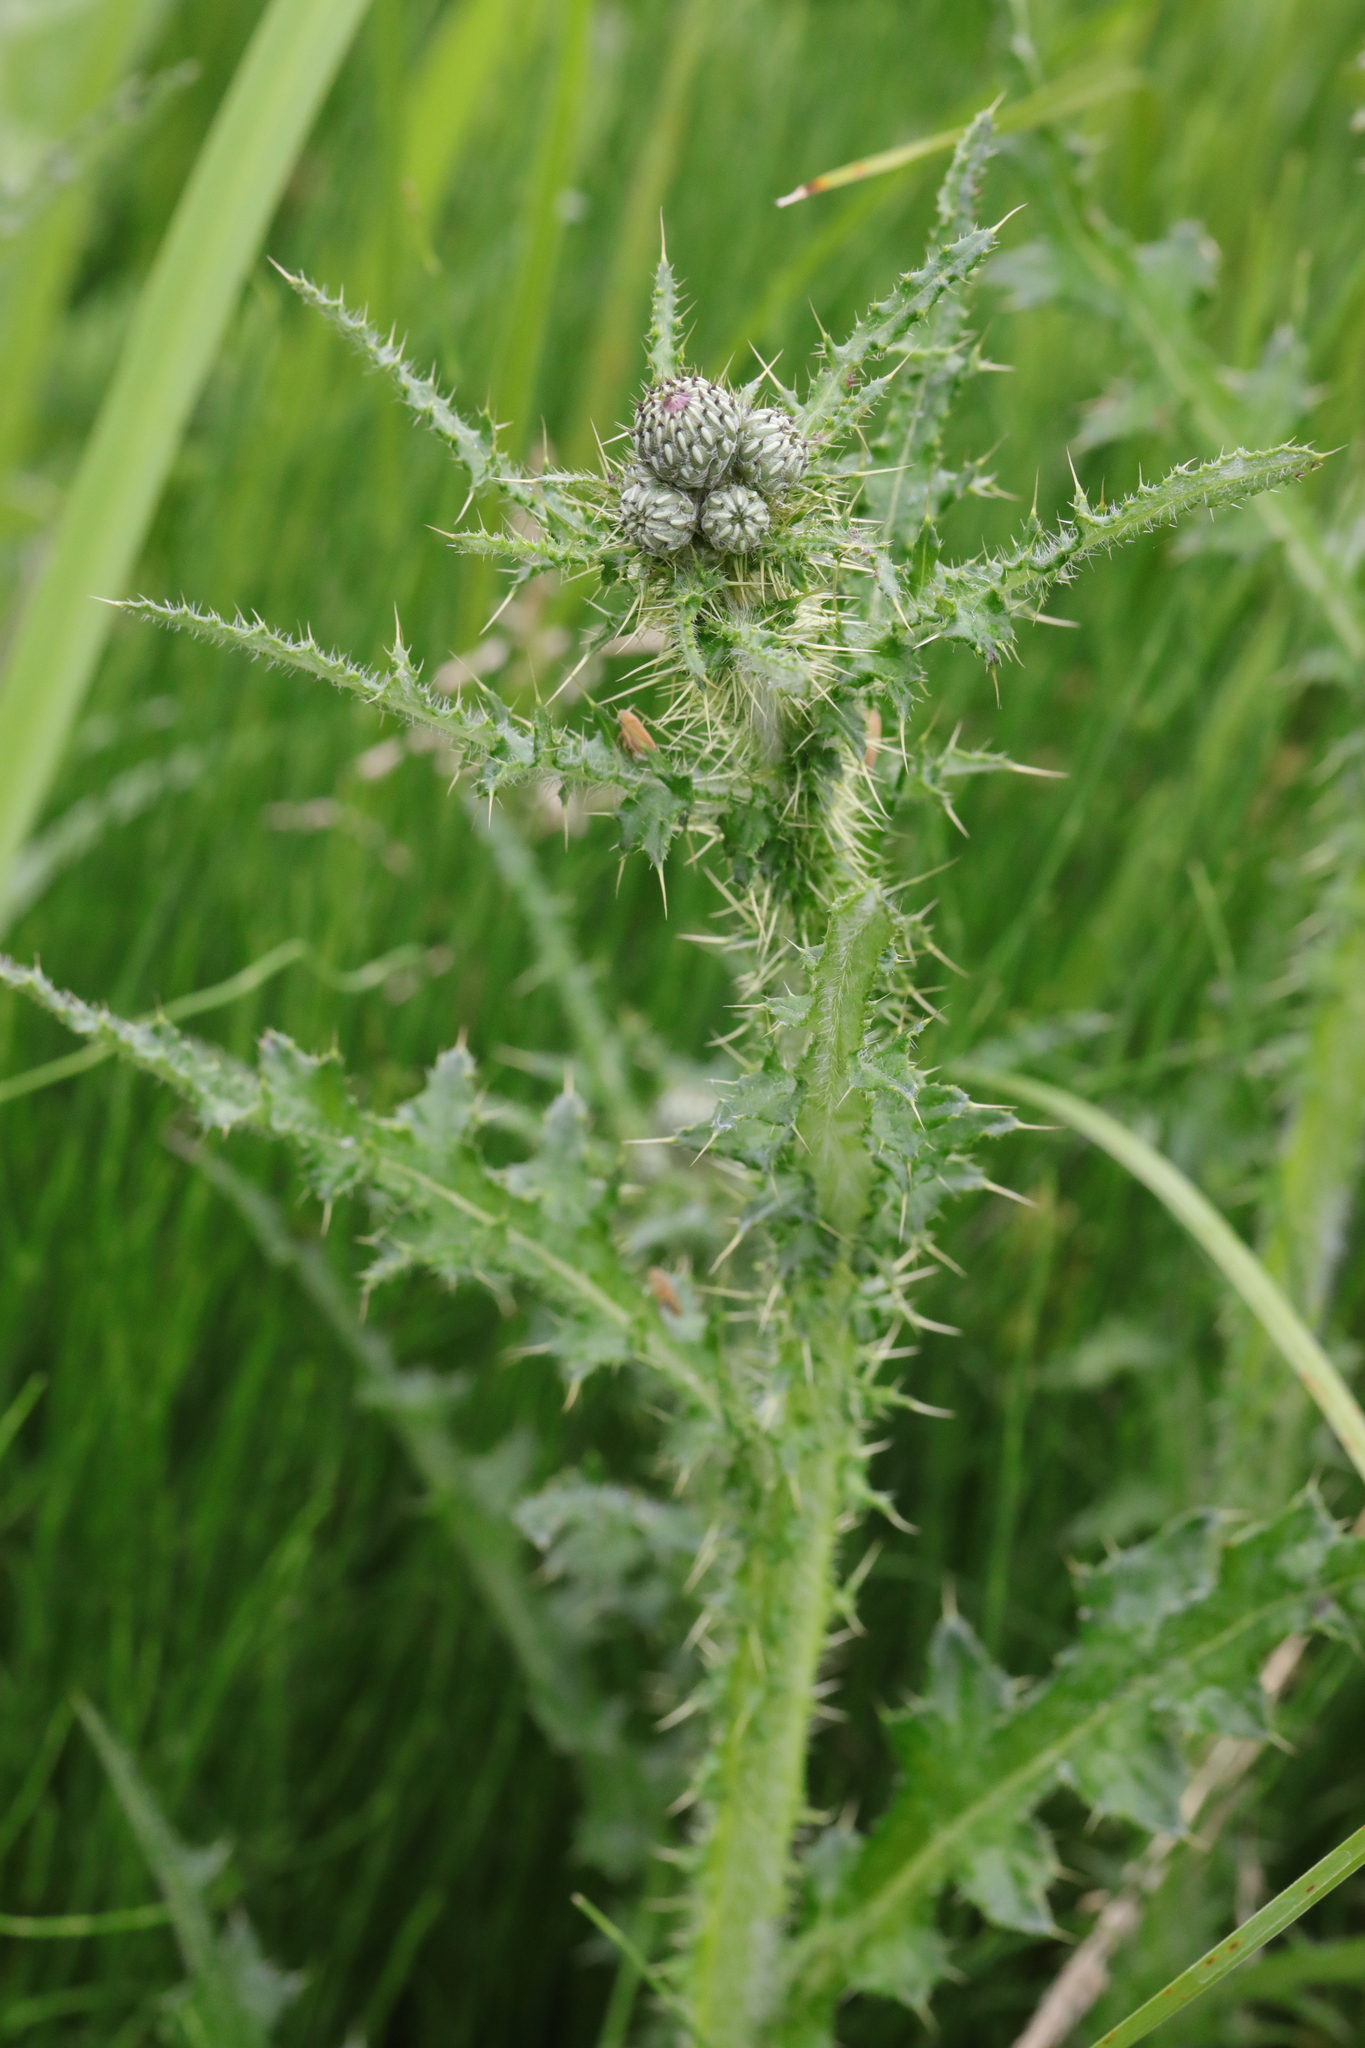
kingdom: Plantae
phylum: Tracheophyta
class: Magnoliopsida
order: Asterales
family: Asteraceae
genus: Cirsium
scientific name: Cirsium palustre
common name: Marsh thistle
